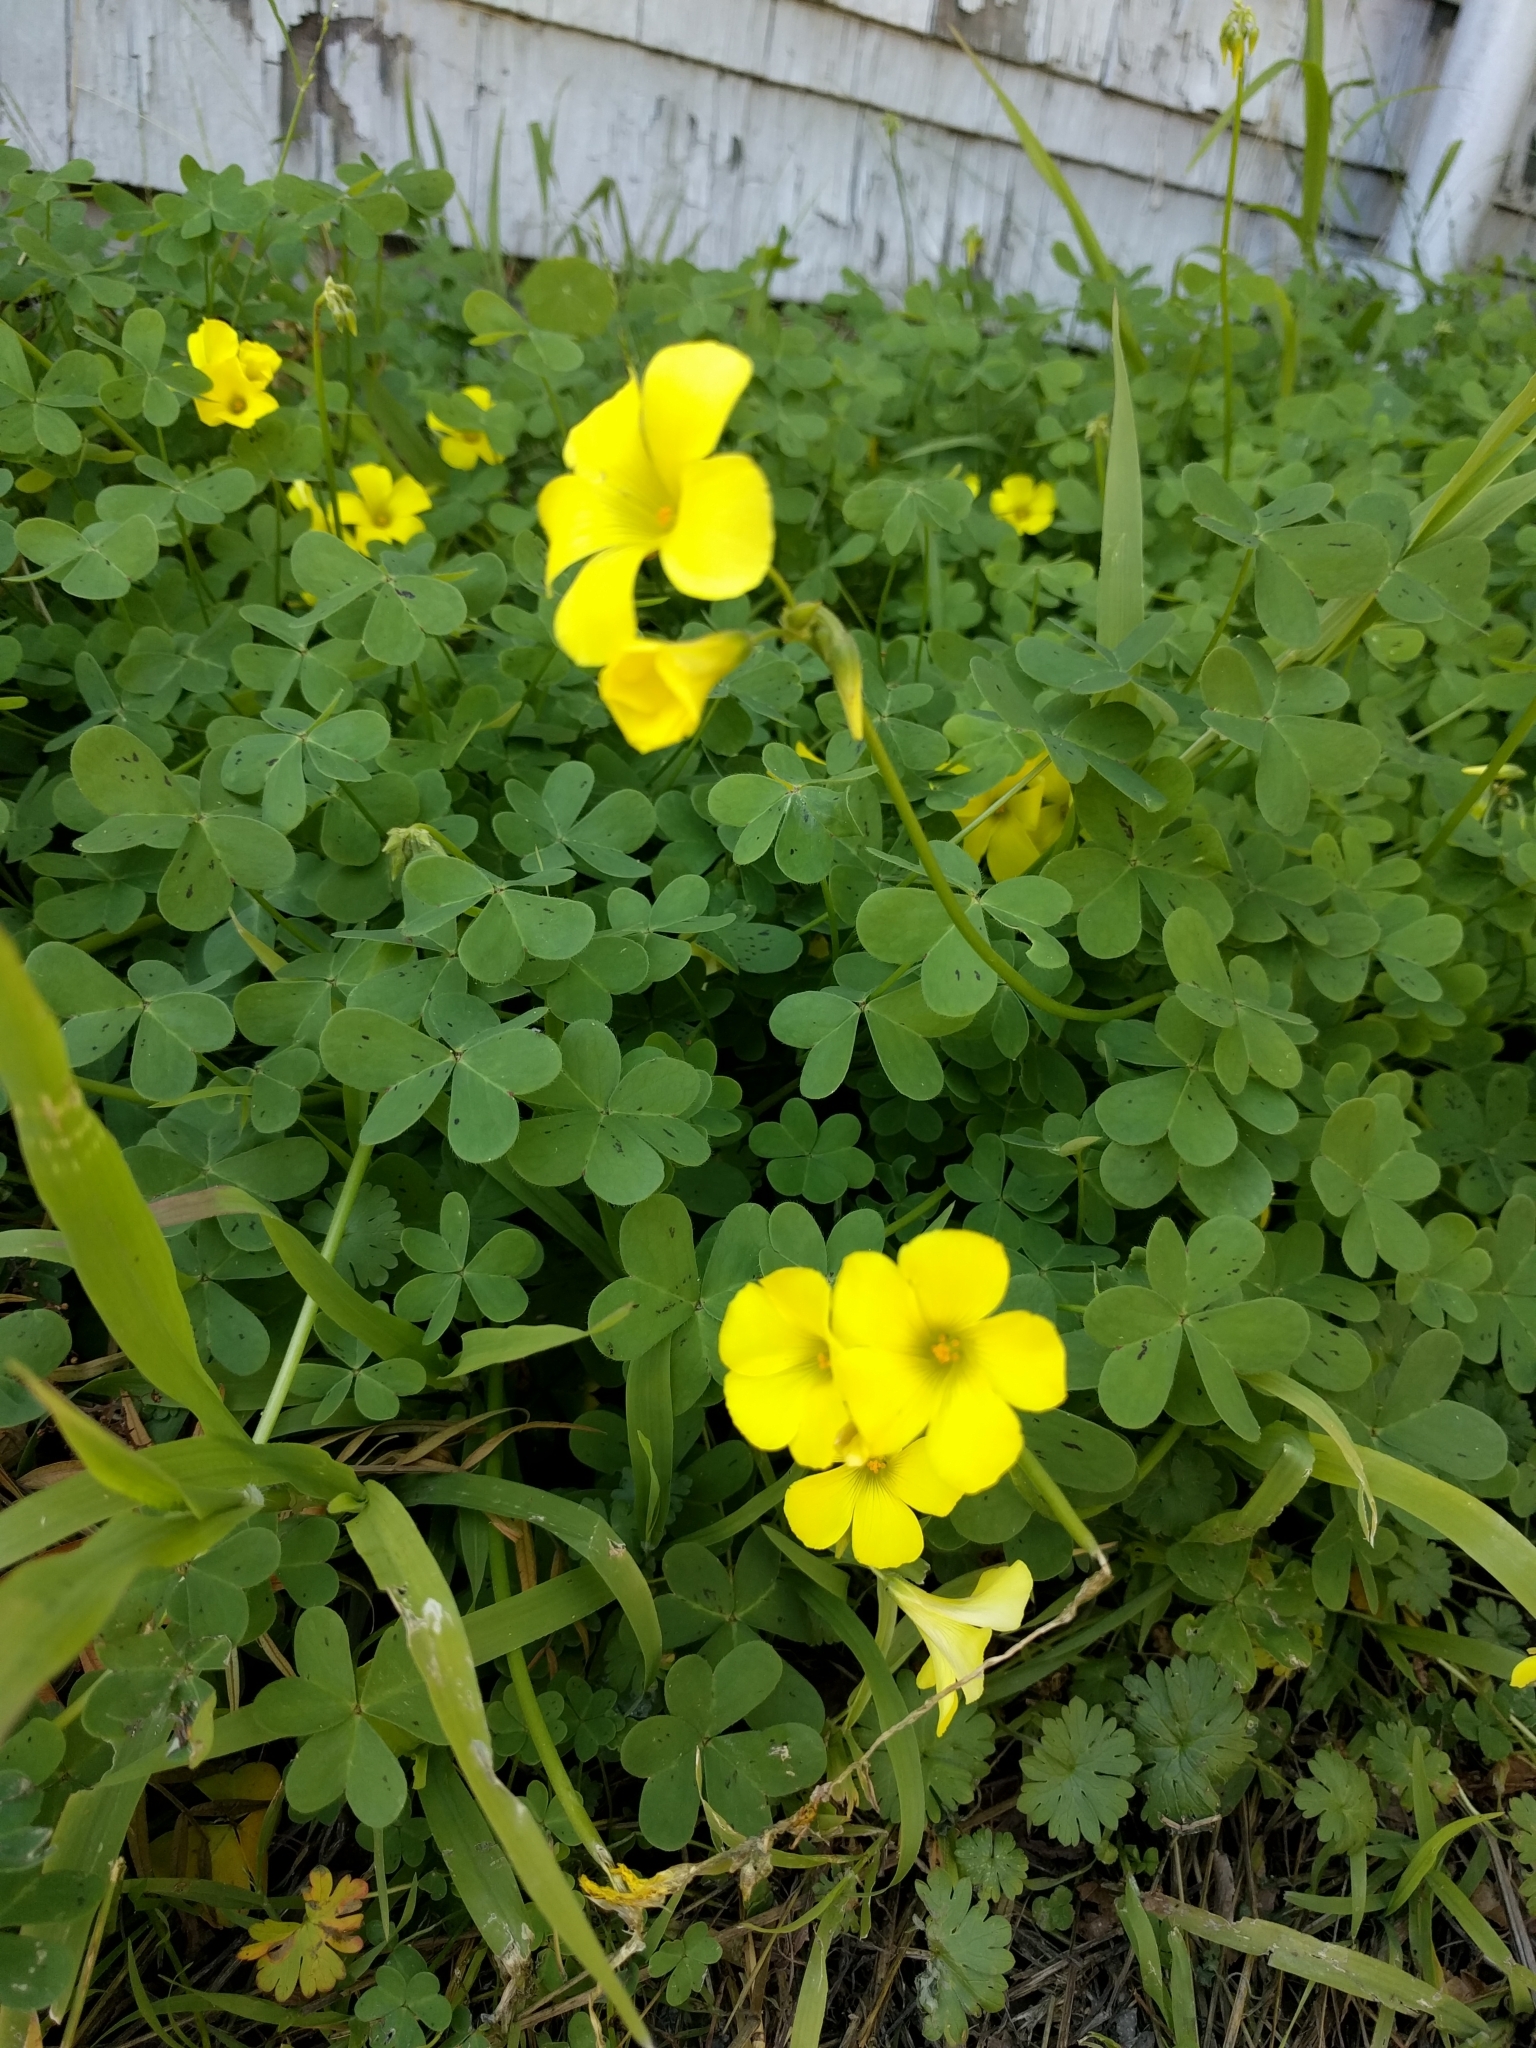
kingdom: Plantae
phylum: Tracheophyta
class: Magnoliopsida
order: Oxalidales
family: Oxalidaceae
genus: Oxalis
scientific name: Oxalis pes-caprae
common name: Bermuda-buttercup
